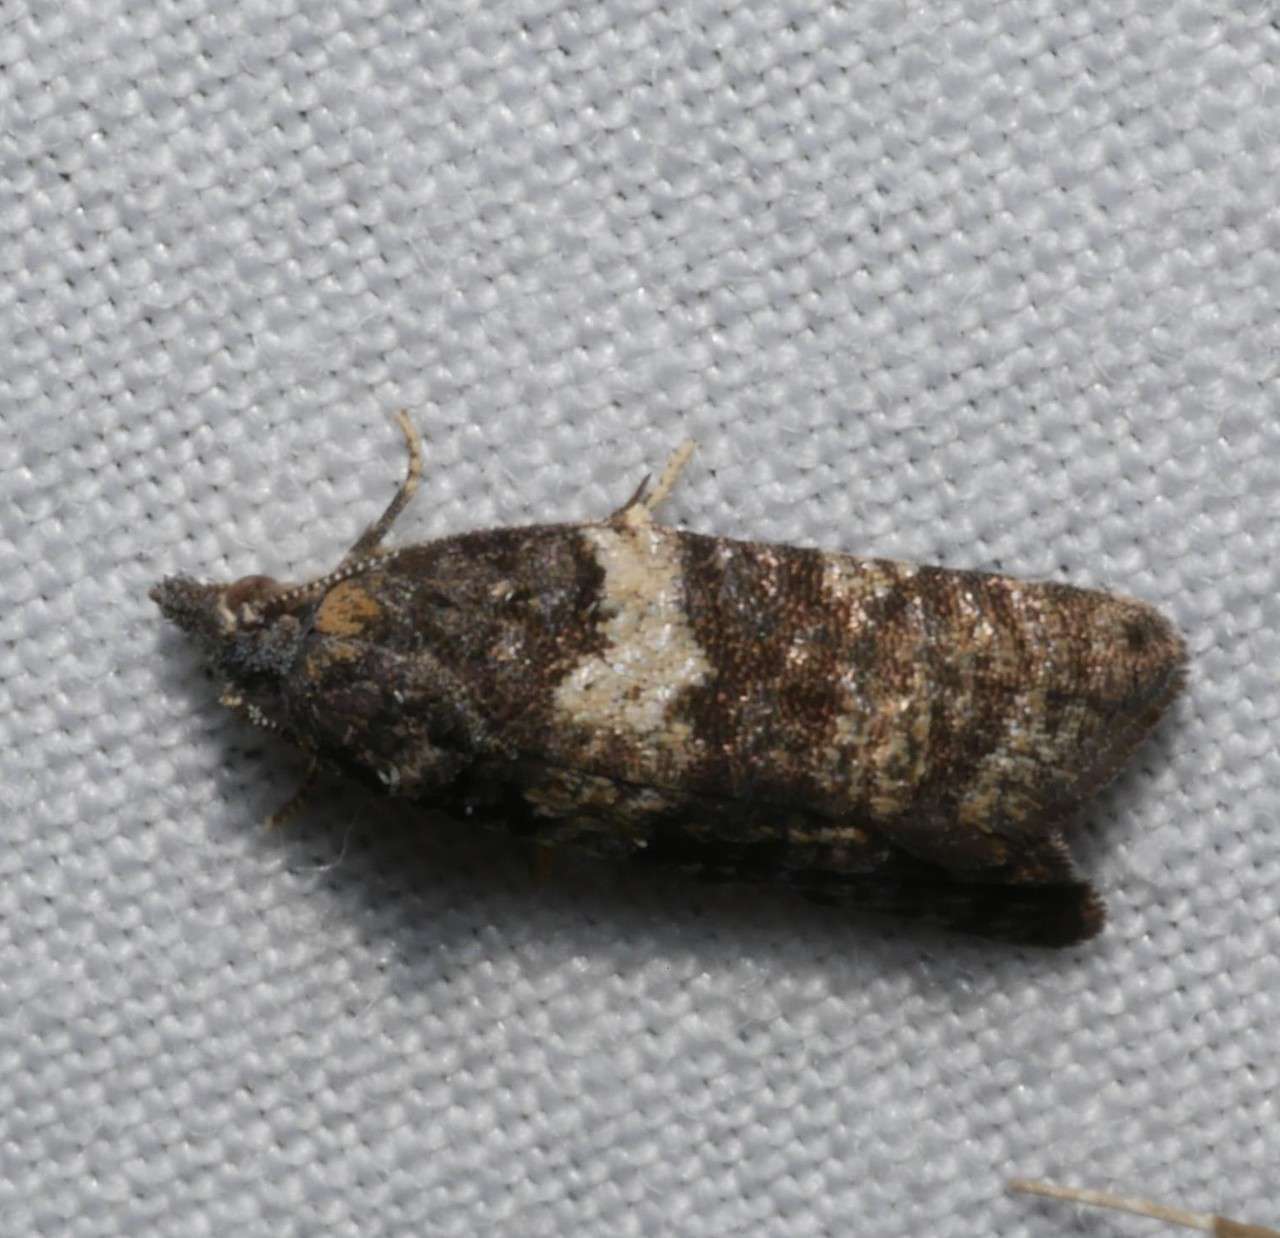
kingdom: Animalia
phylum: Arthropoda
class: Insecta
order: Lepidoptera
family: Tortricidae
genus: Dichelia
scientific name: Dichelia cosmopis
